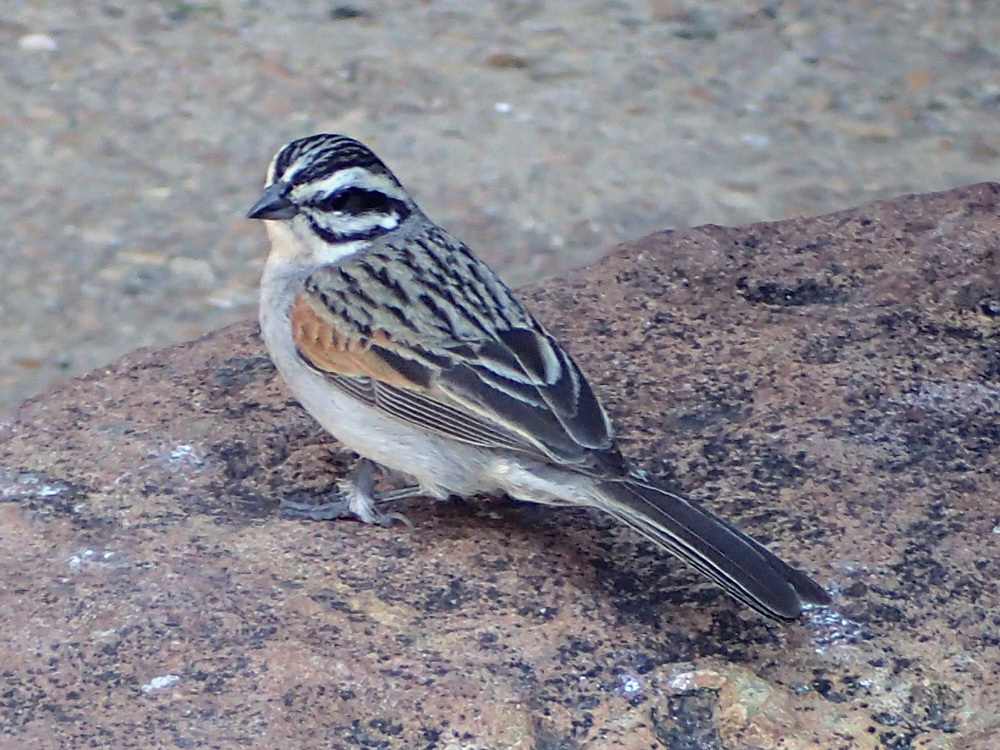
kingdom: Animalia
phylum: Chordata
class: Aves
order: Passeriformes
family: Emberizidae
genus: Emberiza
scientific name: Emberiza capensis
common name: Cape bunting
